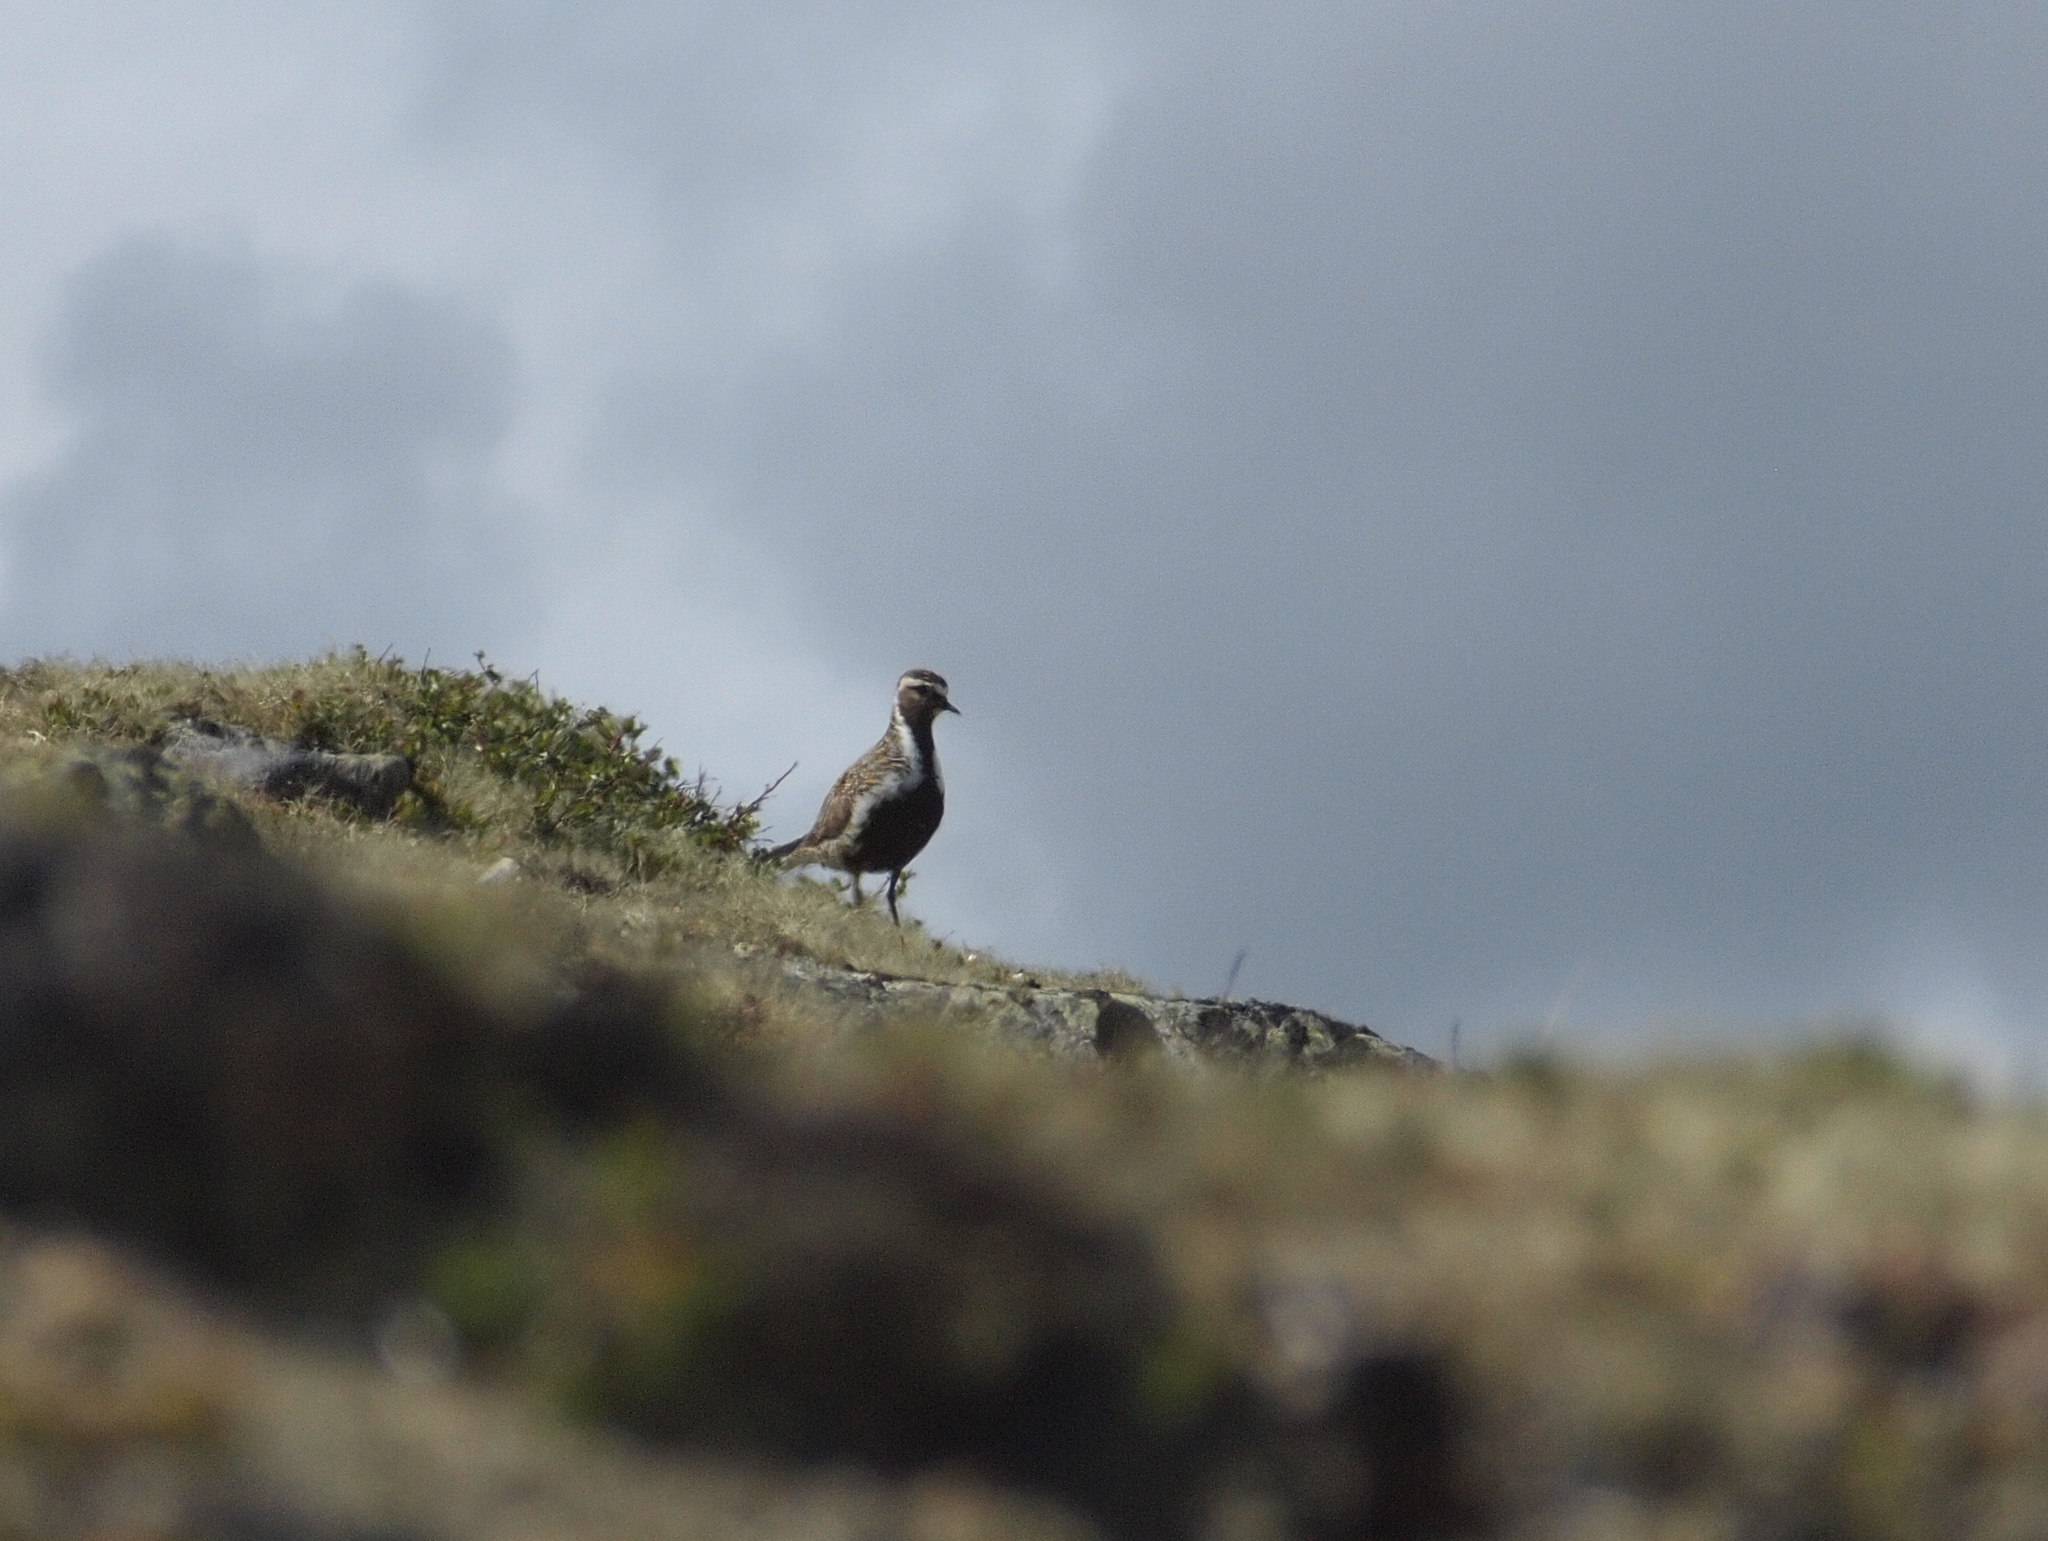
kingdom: Animalia
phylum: Chordata
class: Aves
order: Charadriiformes
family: Charadriidae
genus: Pluvialis
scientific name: Pluvialis apricaria
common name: European golden plover
